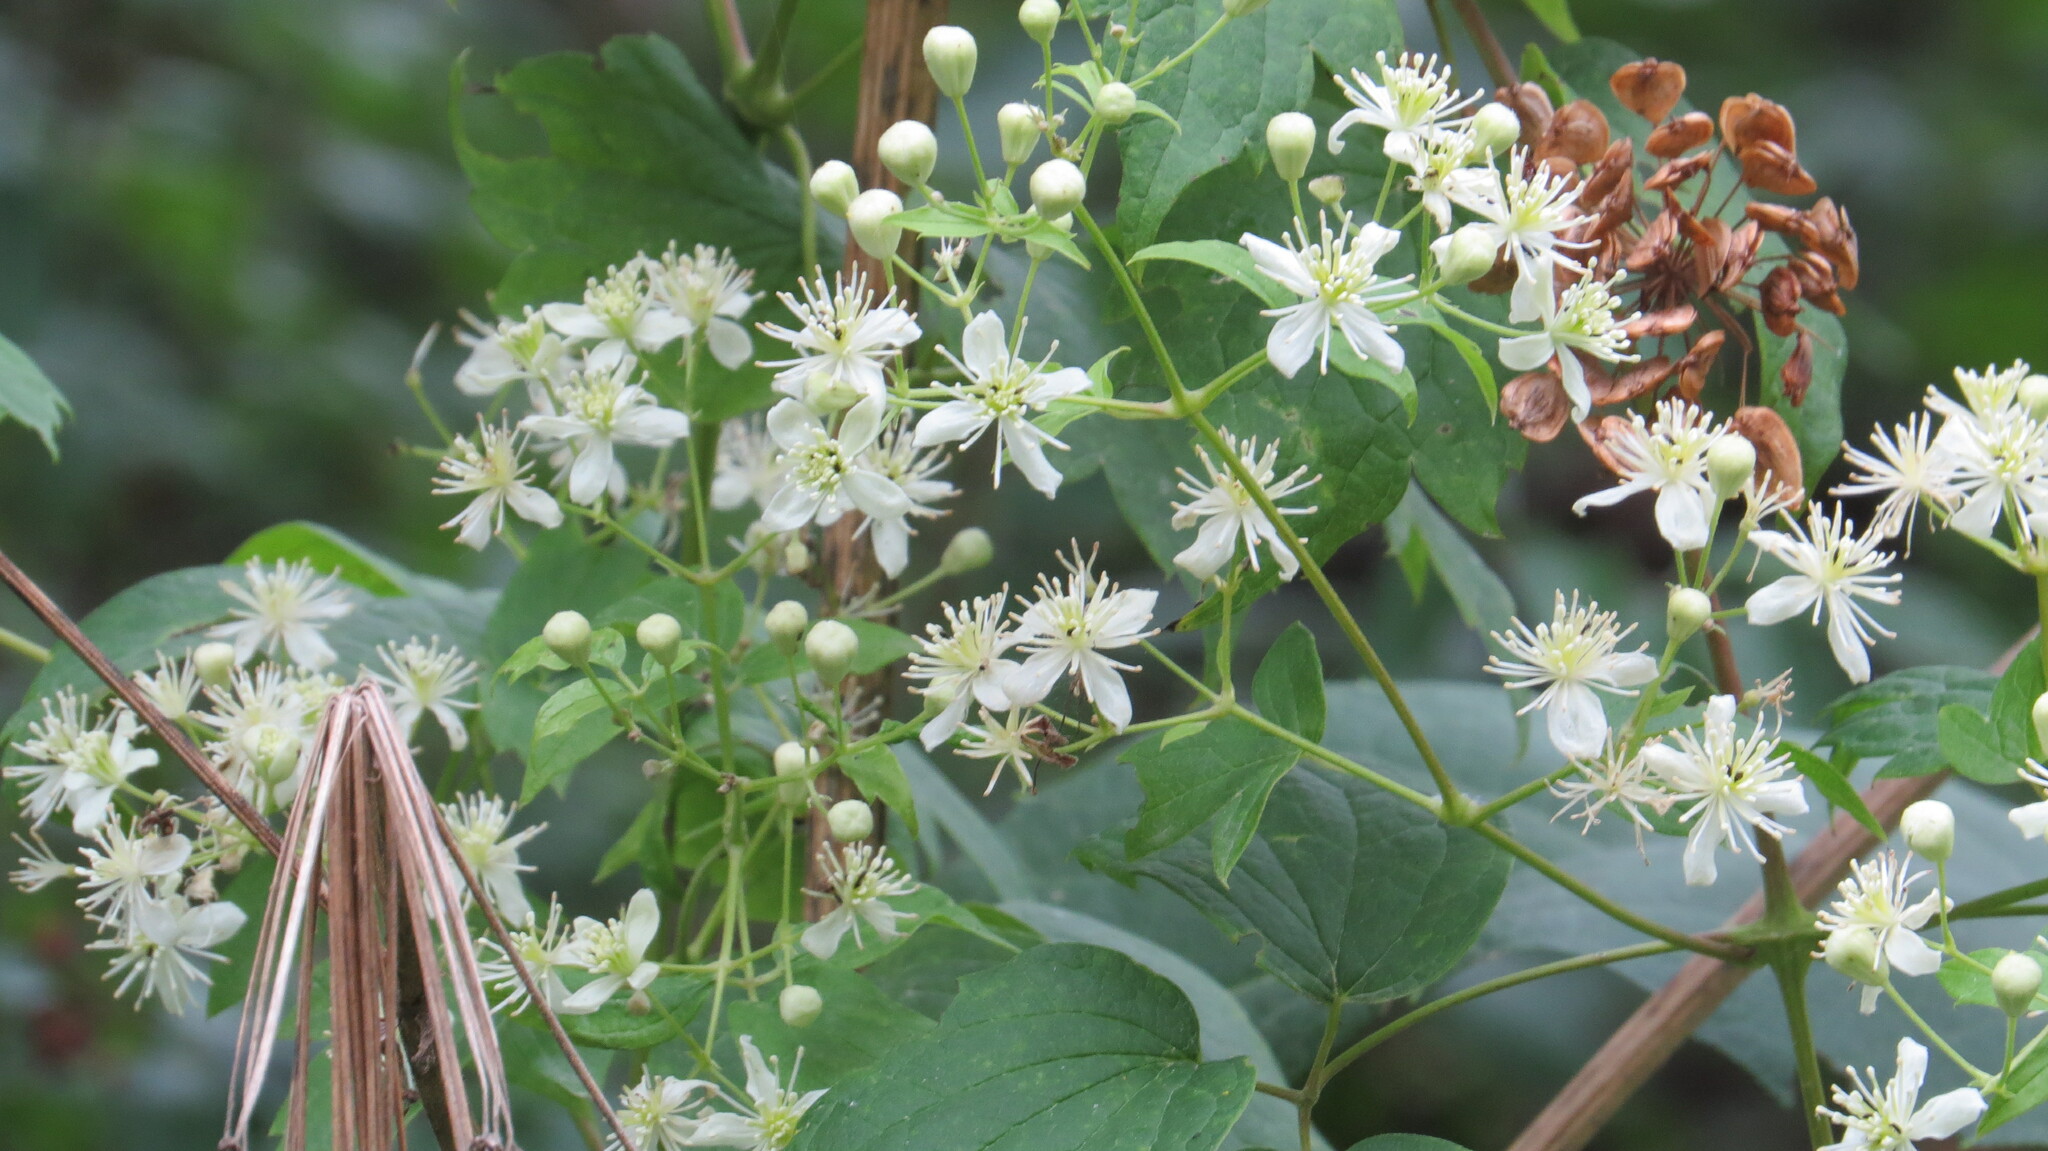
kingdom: Plantae
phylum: Tracheophyta
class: Magnoliopsida
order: Ranunculales
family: Ranunculaceae
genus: Clematis
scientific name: Clematis virginiana
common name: Virgin's-bower
